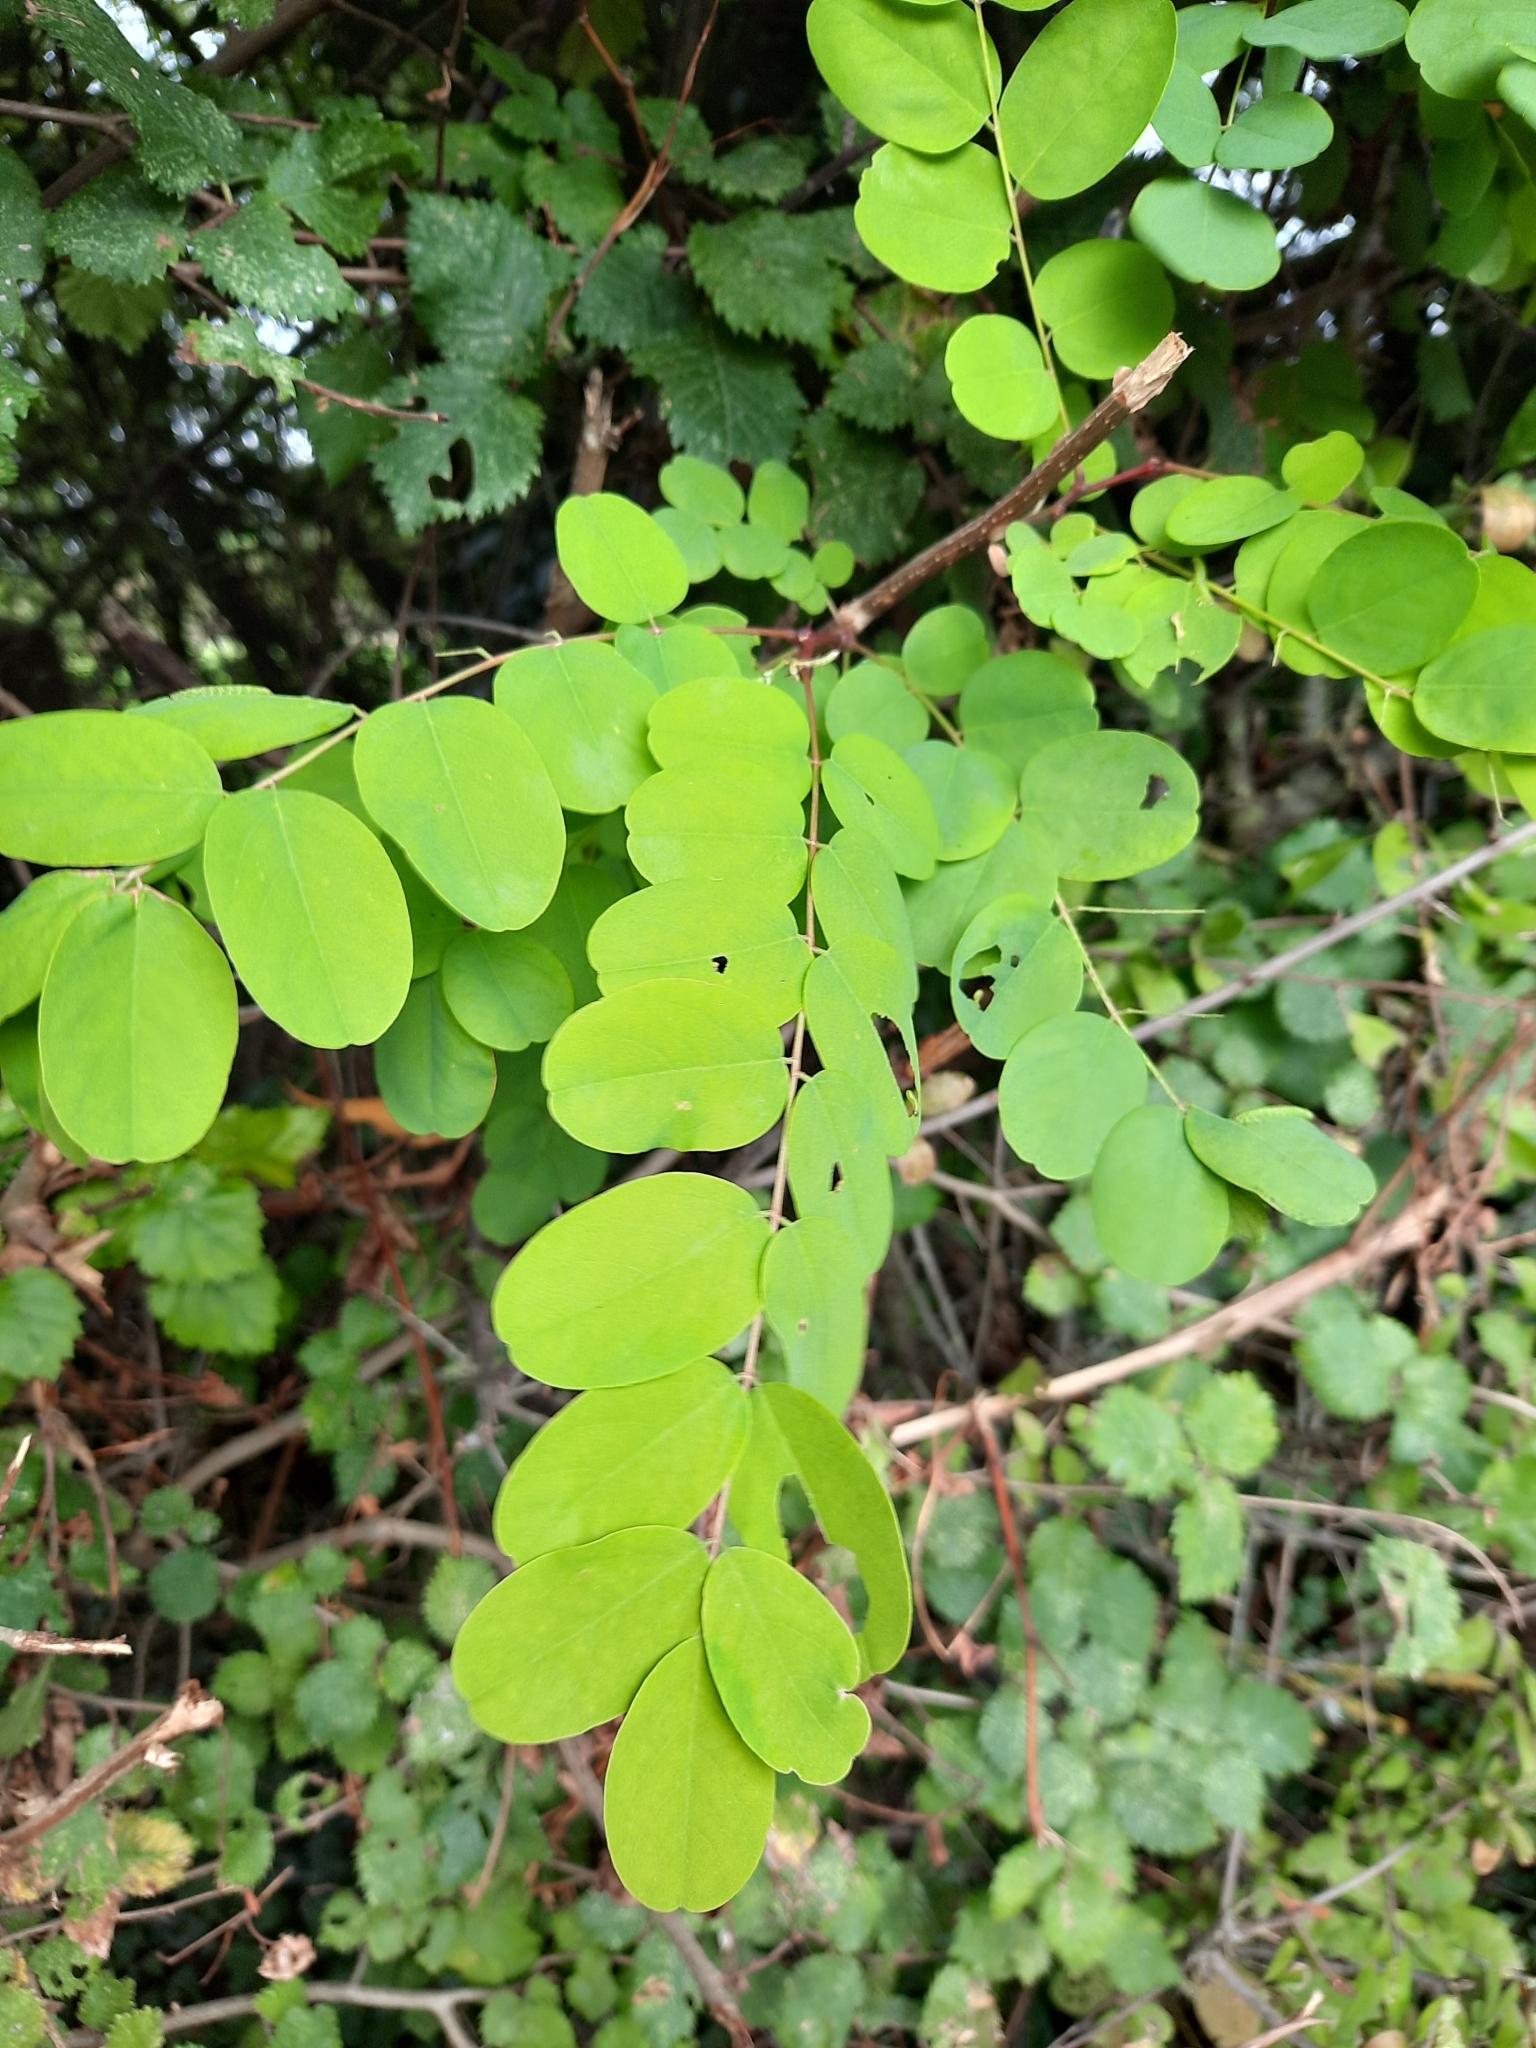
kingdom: Plantae
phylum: Tracheophyta
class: Magnoliopsida
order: Fabales
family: Fabaceae
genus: Robinia
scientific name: Robinia pseudoacacia
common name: Black locust
